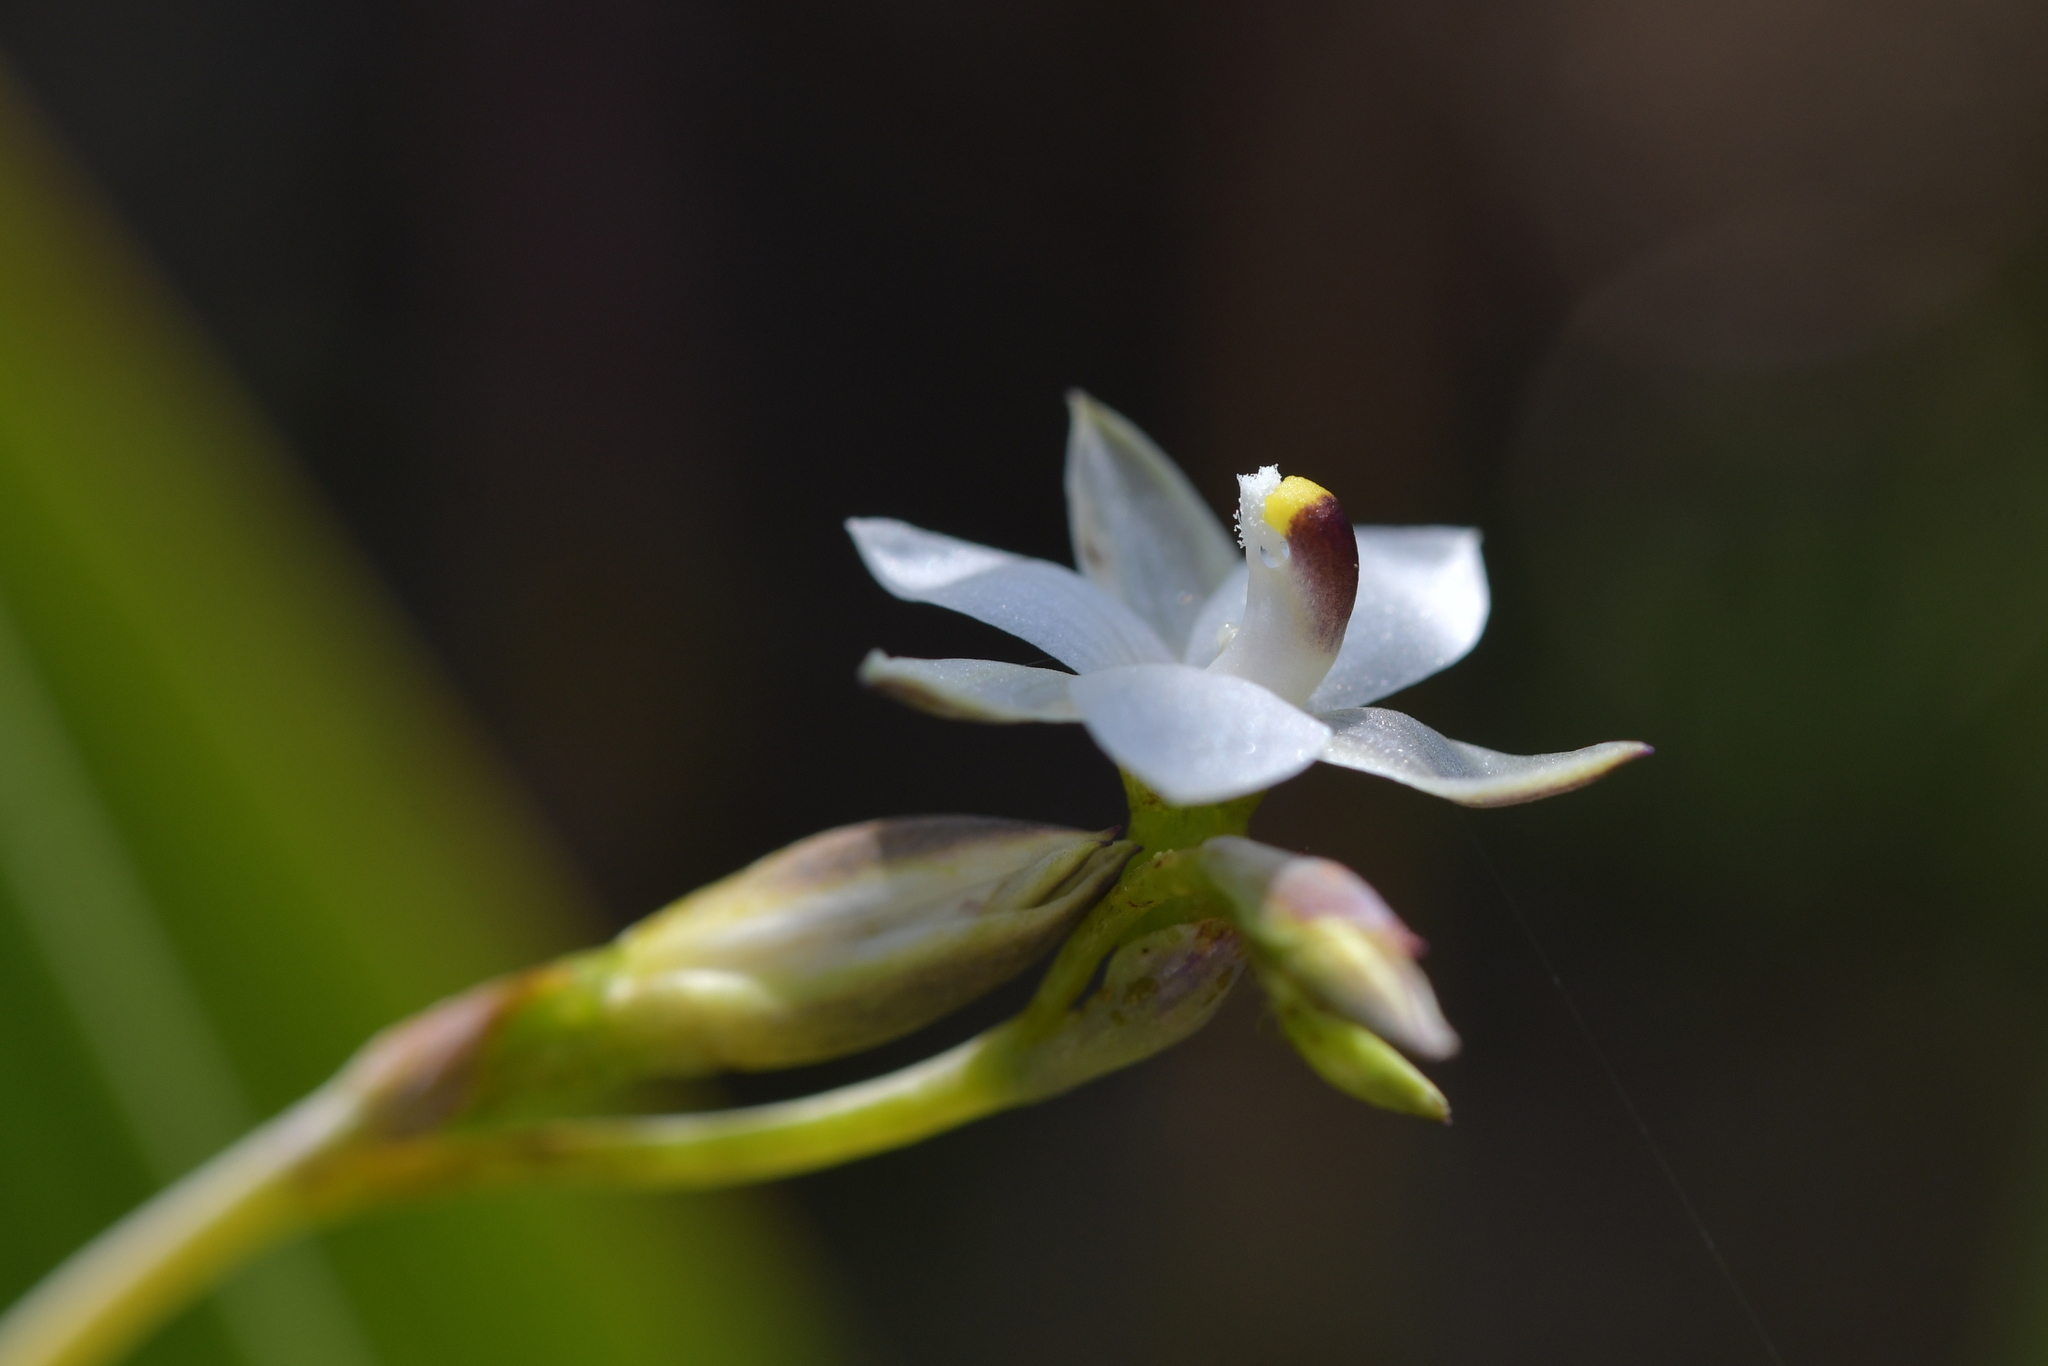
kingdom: Plantae
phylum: Tracheophyta
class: Liliopsida
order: Asparagales
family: Orchidaceae
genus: Thelymitra
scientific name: Thelymitra longifolia
